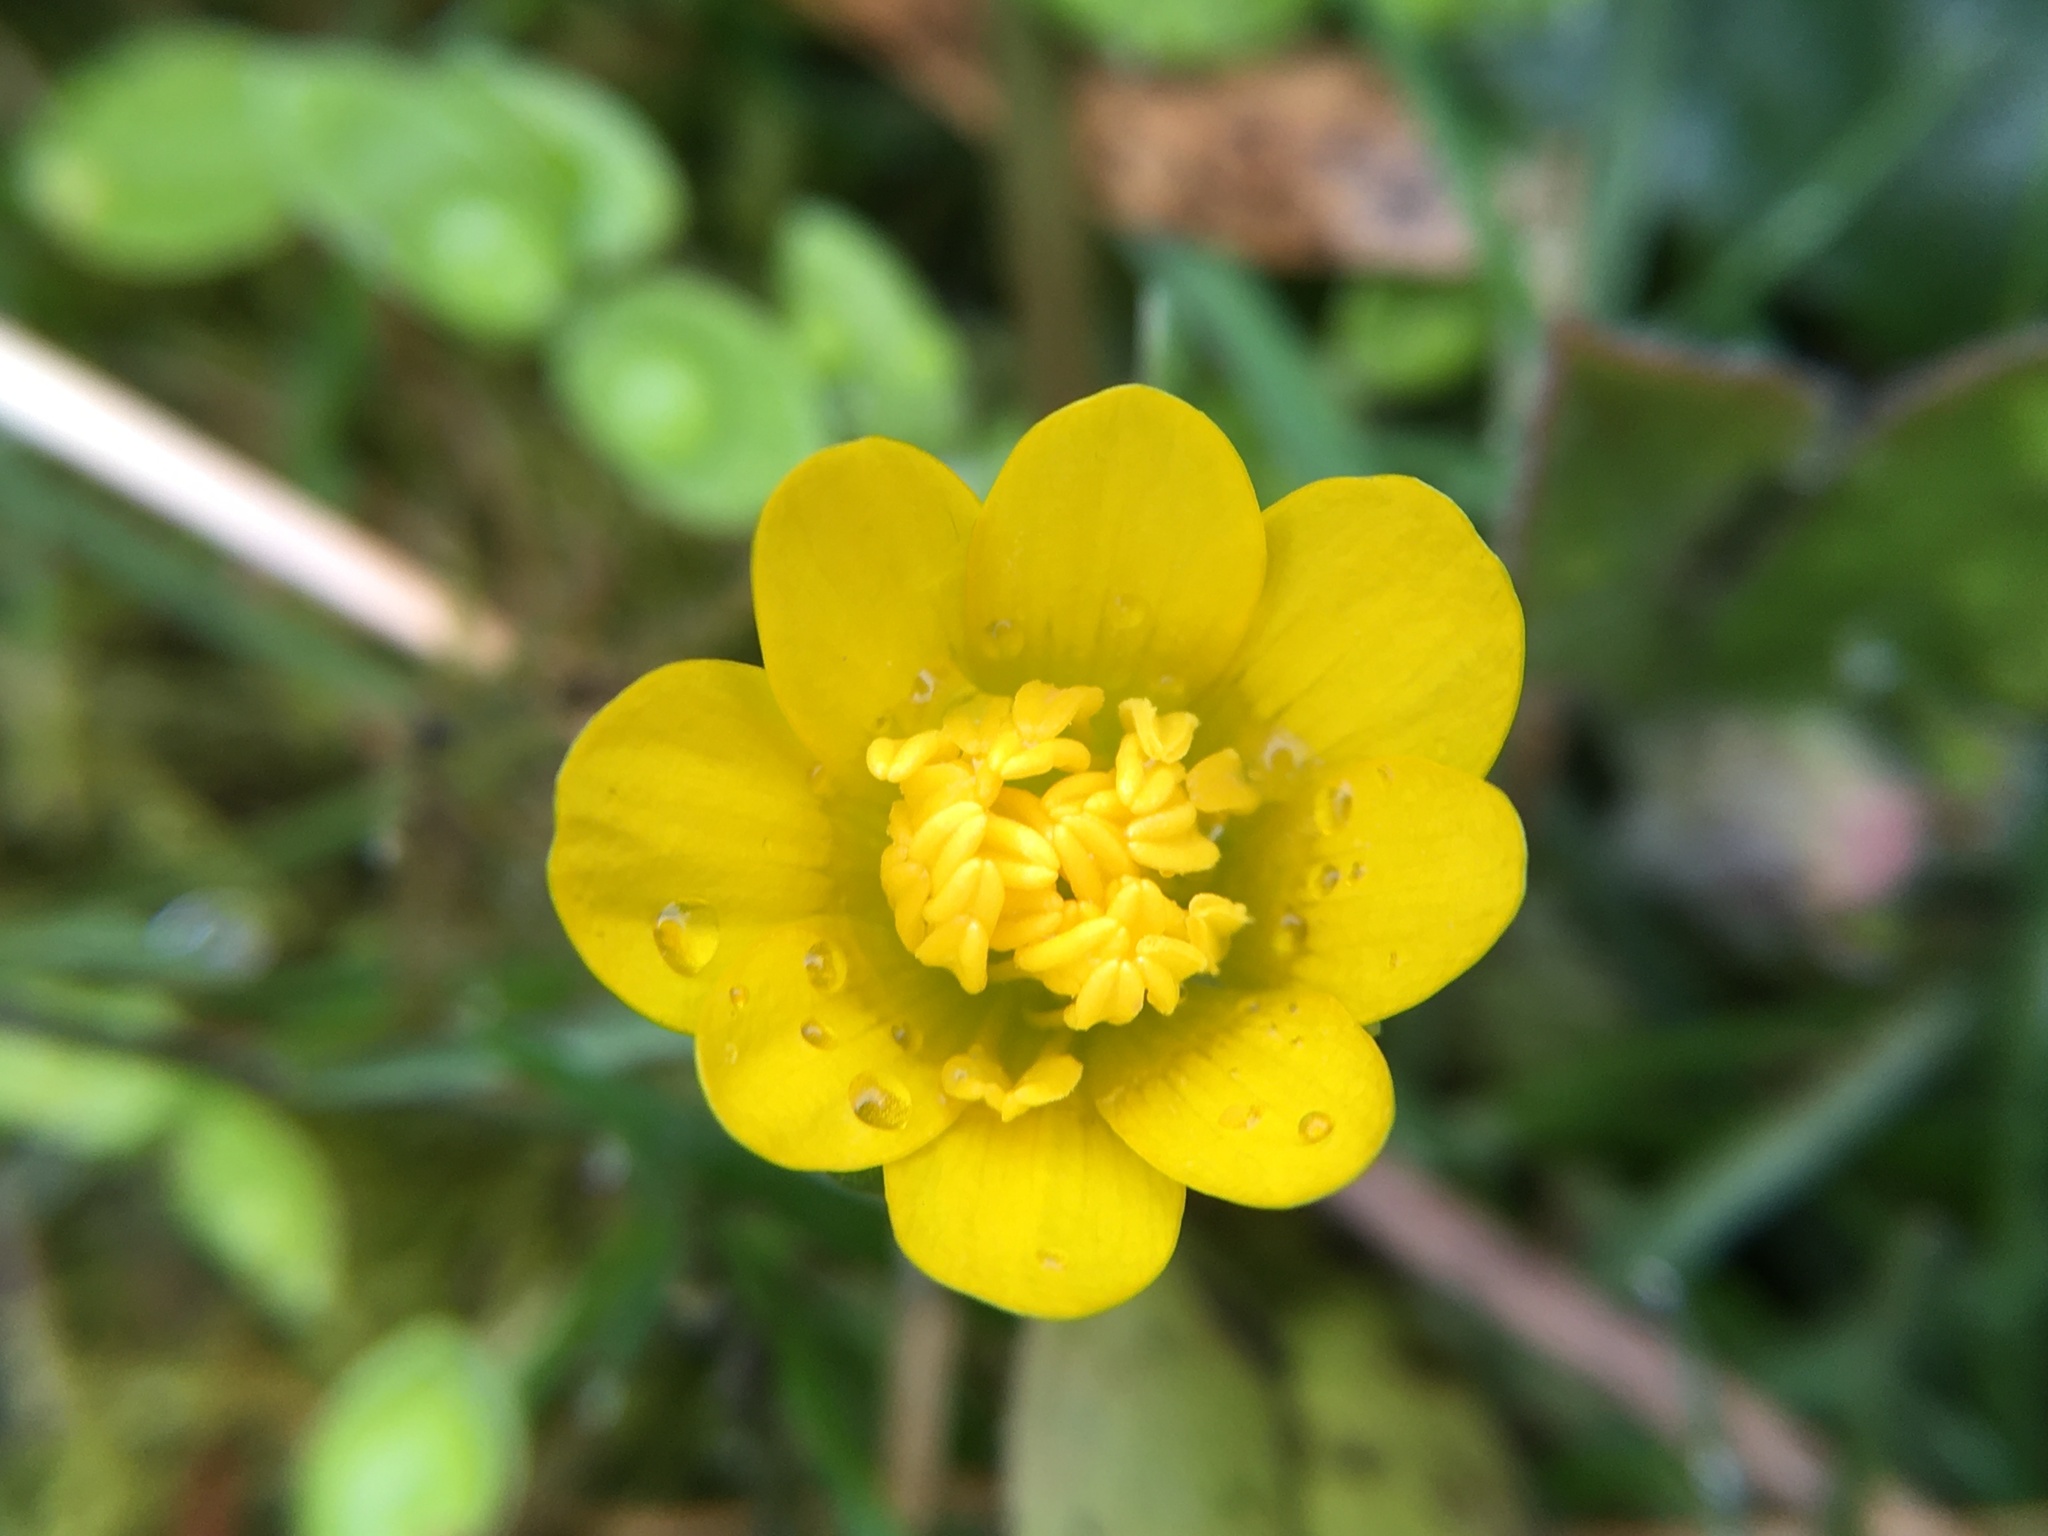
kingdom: Plantae
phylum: Tracheophyta
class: Magnoliopsida
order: Ranunculales
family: Ranunculaceae
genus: Ficaria
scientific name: Ficaria verna
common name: Lesser celandine
